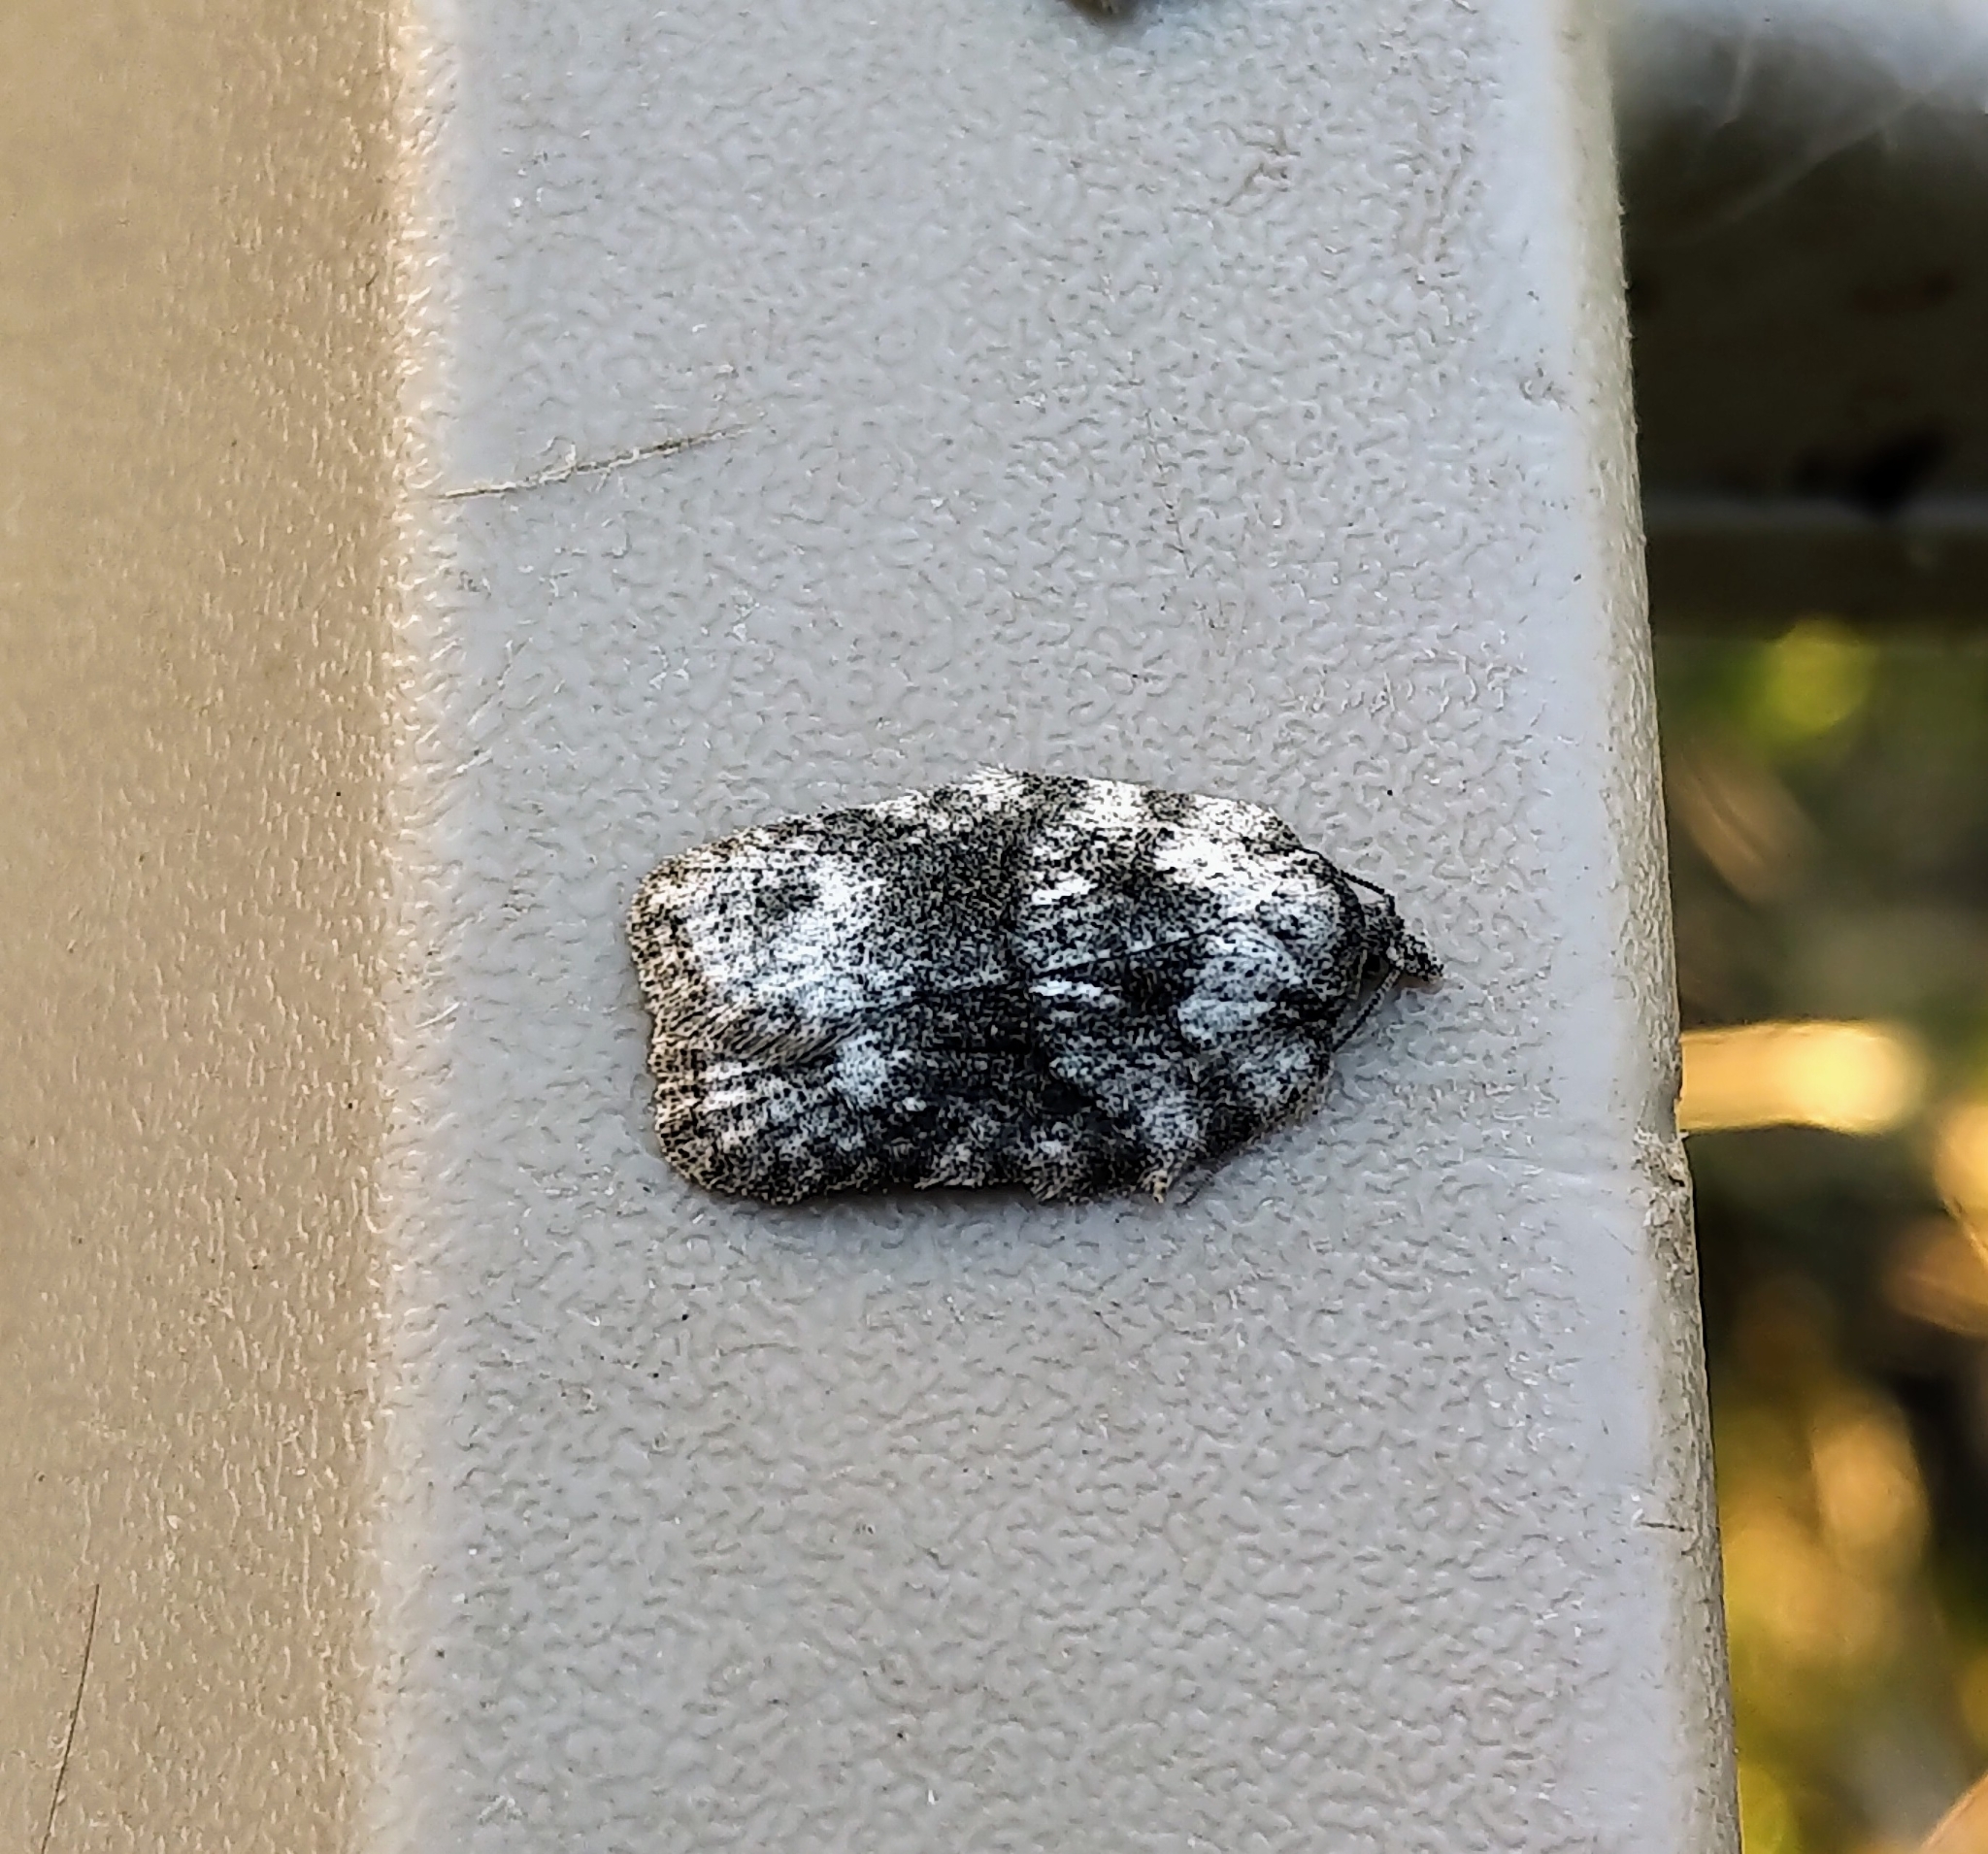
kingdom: Animalia
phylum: Arthropoda
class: Insecta
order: Lepidoptera
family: Tortricidae
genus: Acleris
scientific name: Acleris nigrolinea
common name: Black-lined acleris
